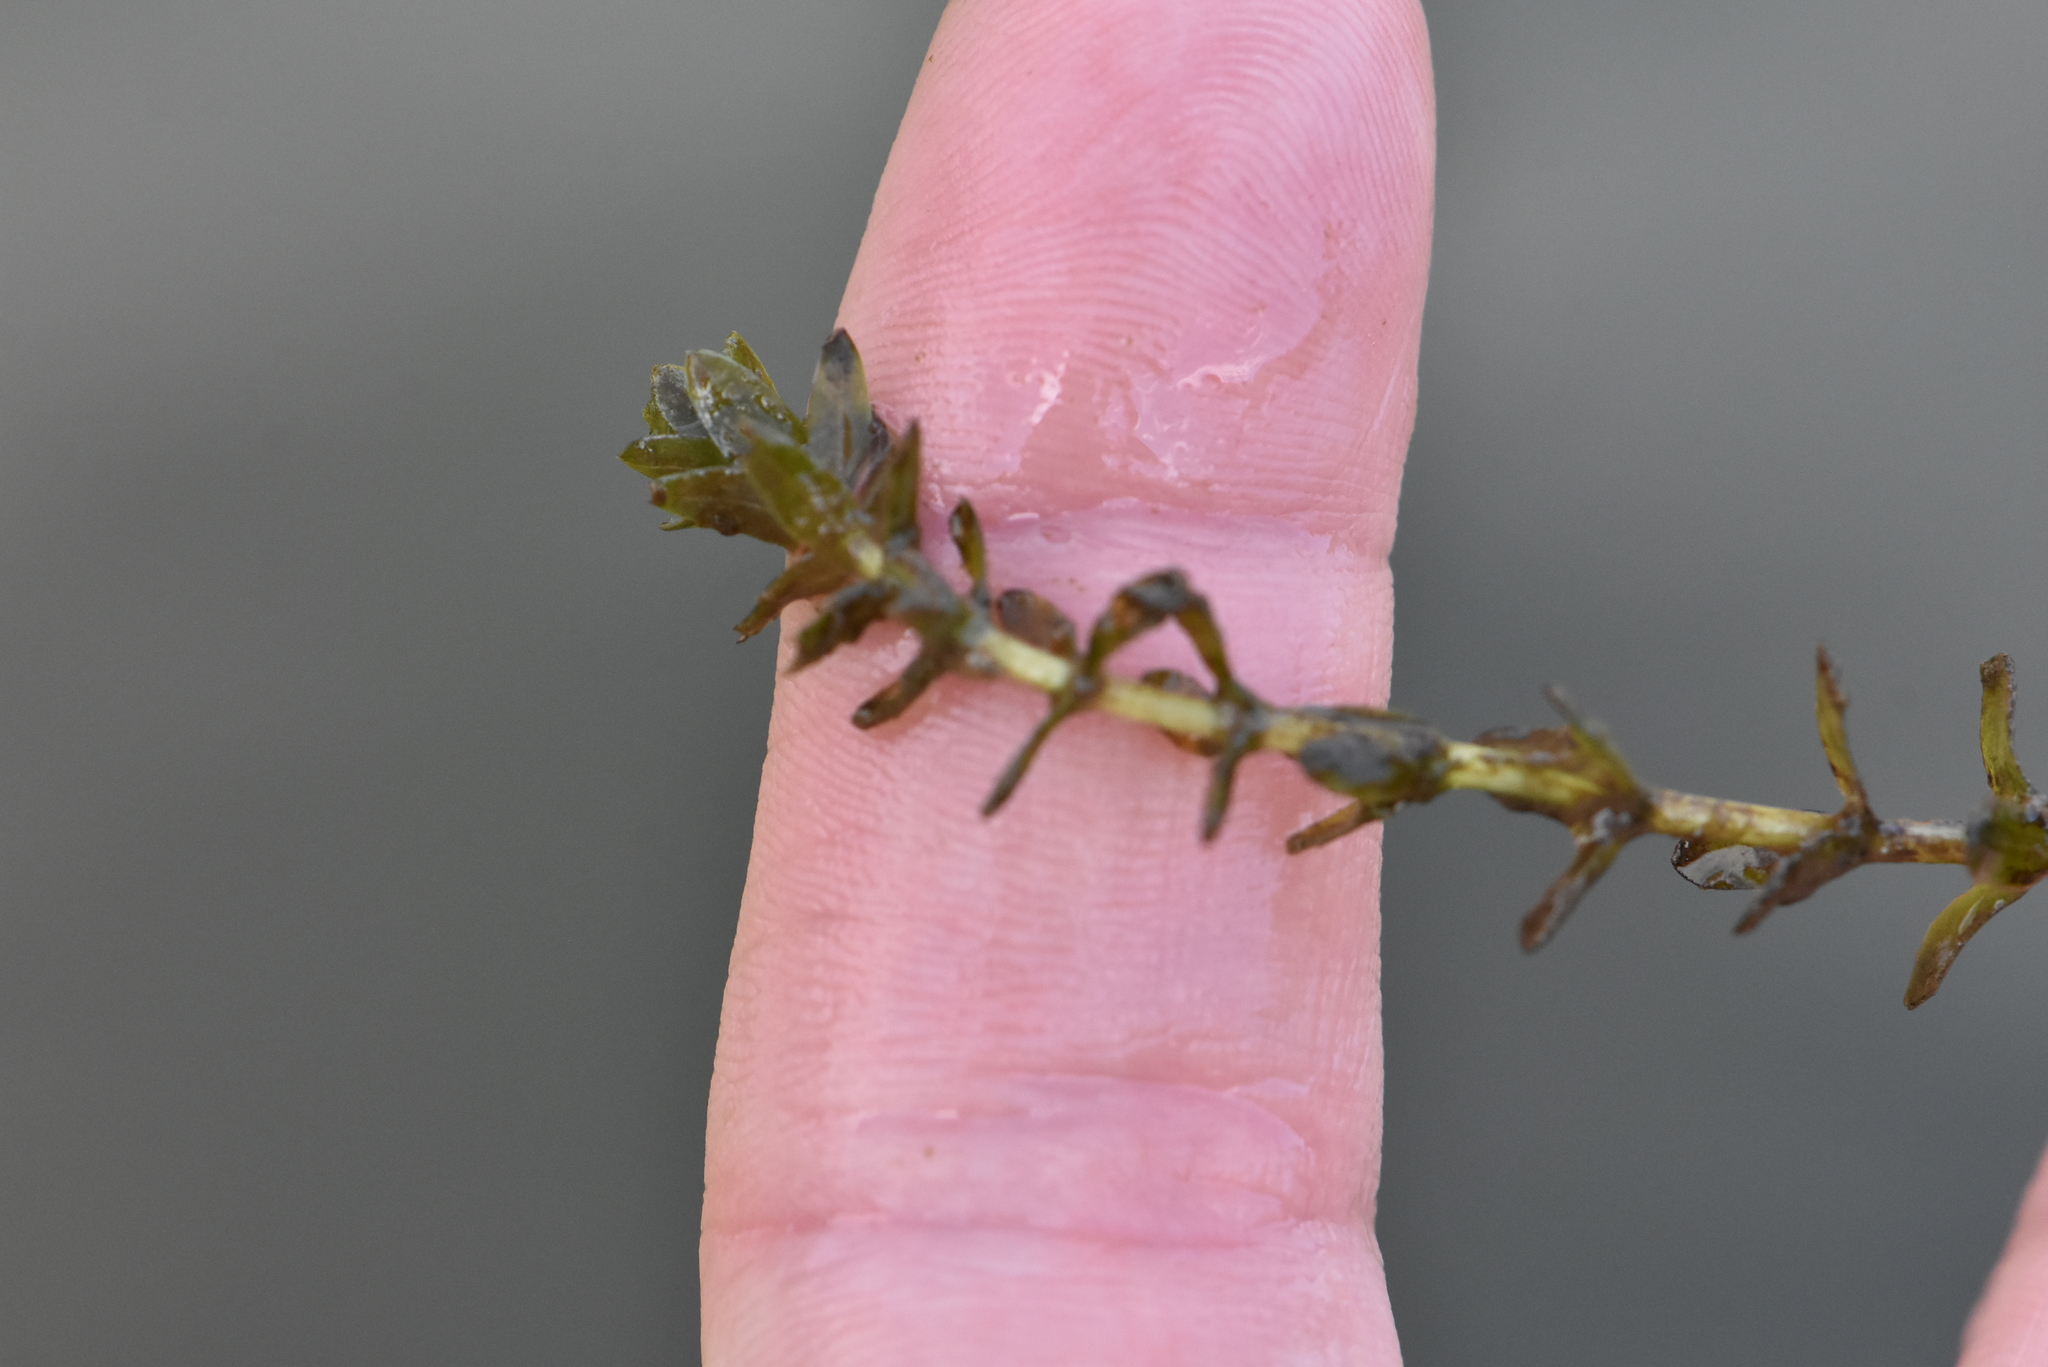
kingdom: Plantae
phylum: Tracheophyta
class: Liliopsida
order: Alismatales
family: Hydrocharitaceae
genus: Elodea
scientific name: Elodea canadensis
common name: Canadian waterweed
